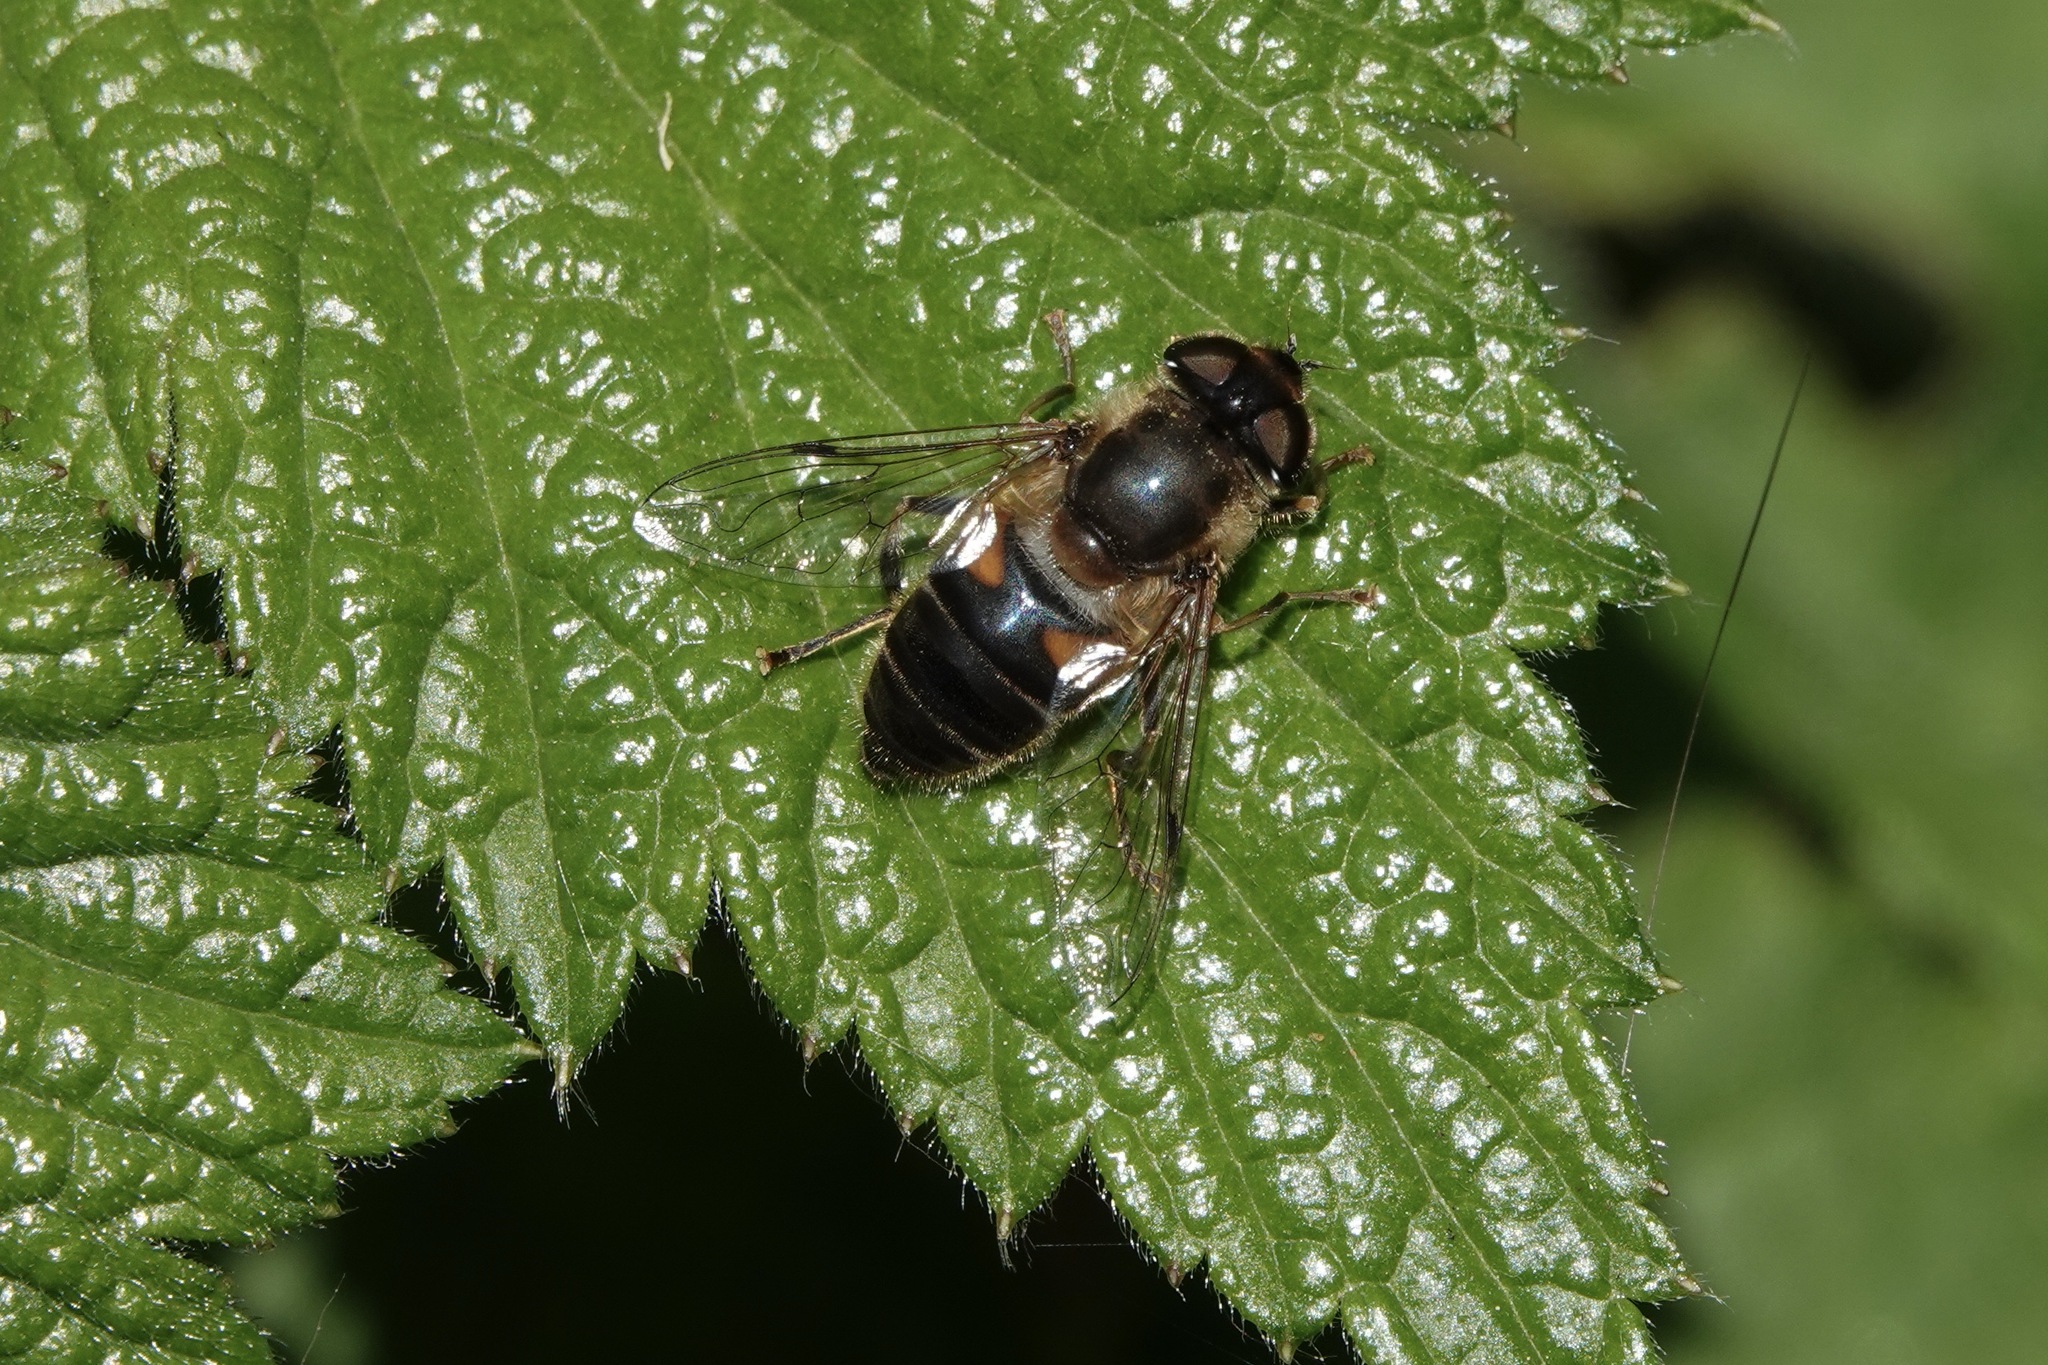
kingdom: Animalia
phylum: Arthropoda
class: Insecta
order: Diptera
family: Syrphidae
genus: Eristalis
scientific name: Eristalis tenax
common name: Drone fly
